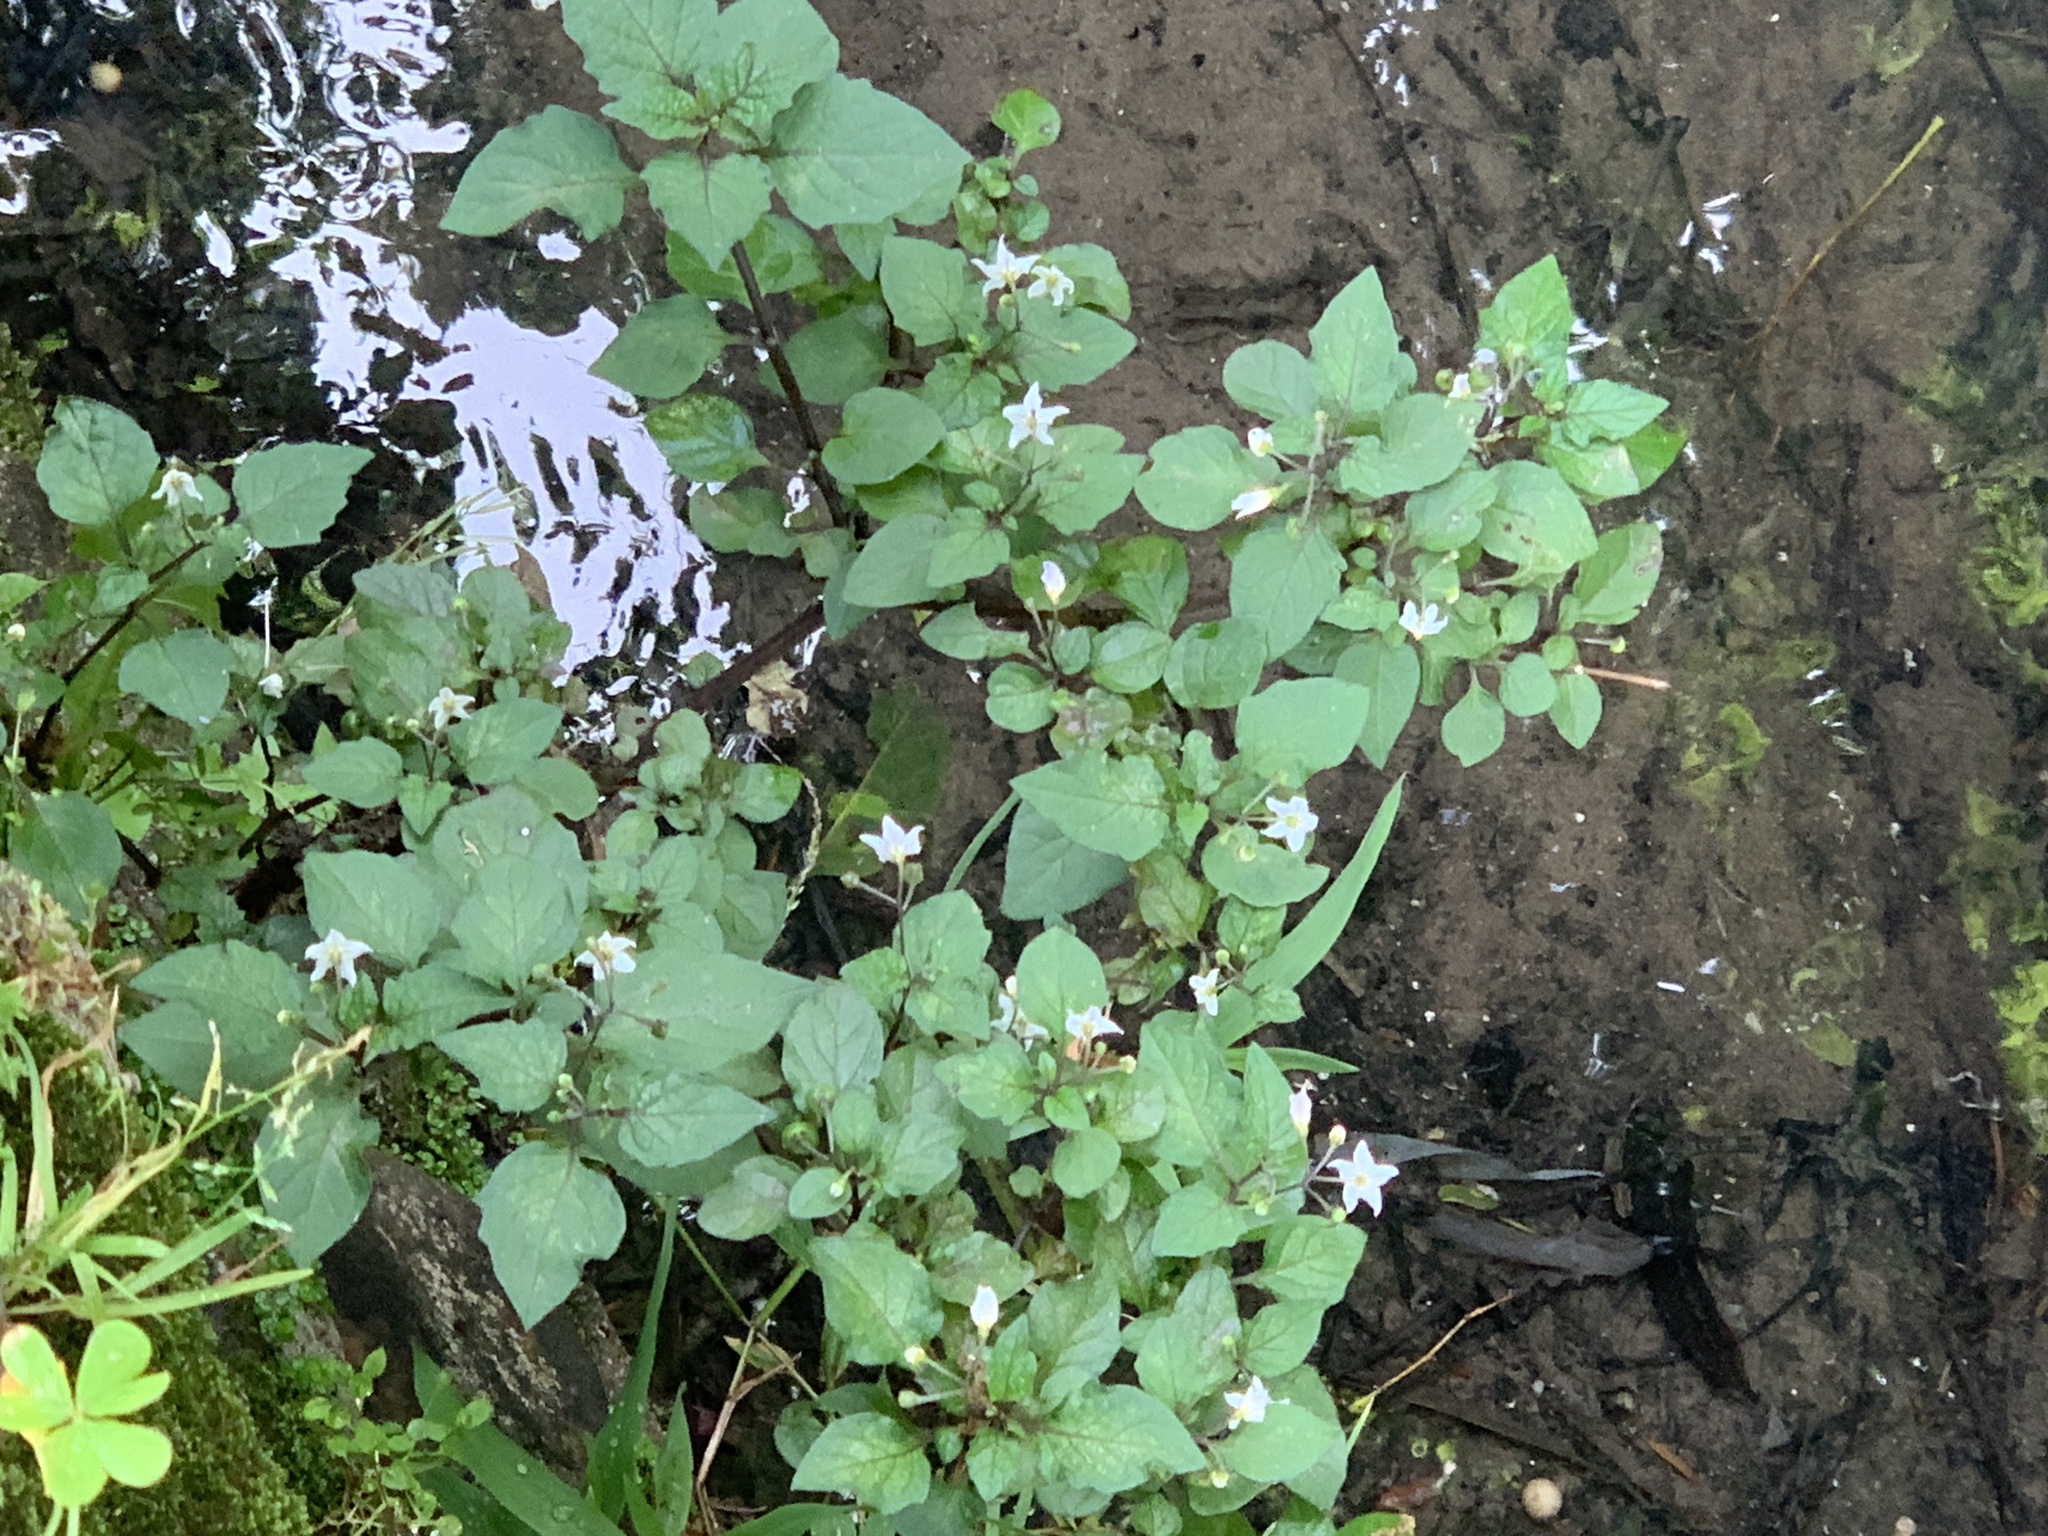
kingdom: Plantae
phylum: Tracheophyta
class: Magnoliopsida
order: Solanales
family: Solanaceae
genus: Solanum
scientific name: Solanum nigrum
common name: Black nightshade
